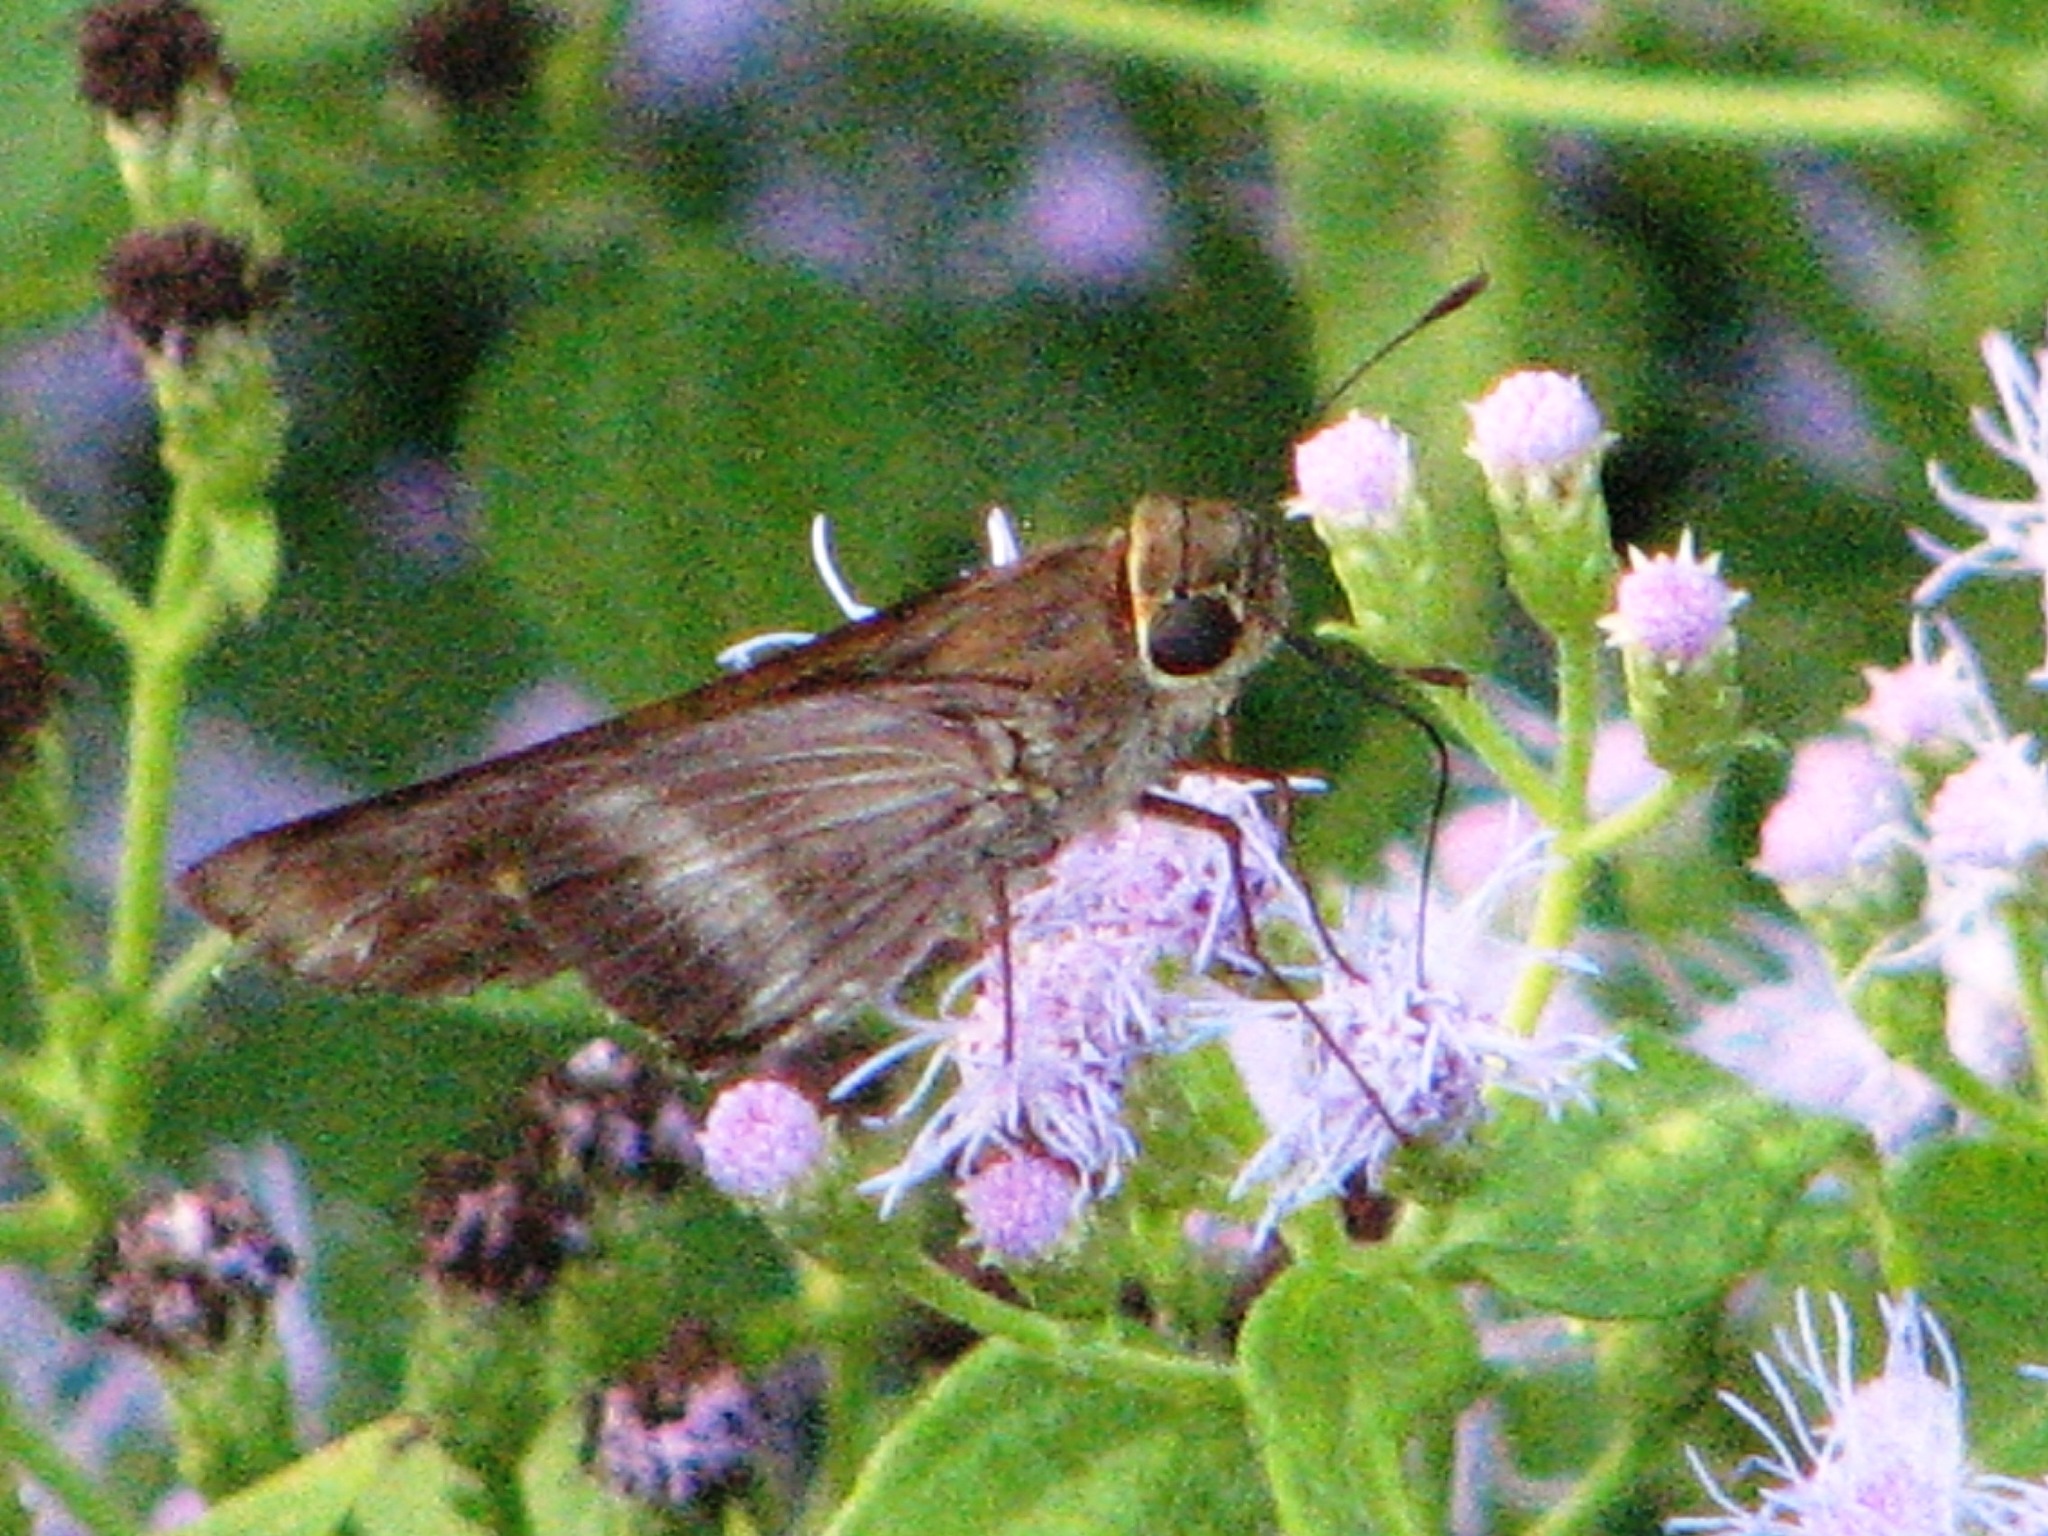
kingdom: Animalia
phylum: Arthropoda
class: Insecta
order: Lepidoptera
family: Hesperiidae
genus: Panoquina
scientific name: Panoquina fusina
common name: Evans' skipper
